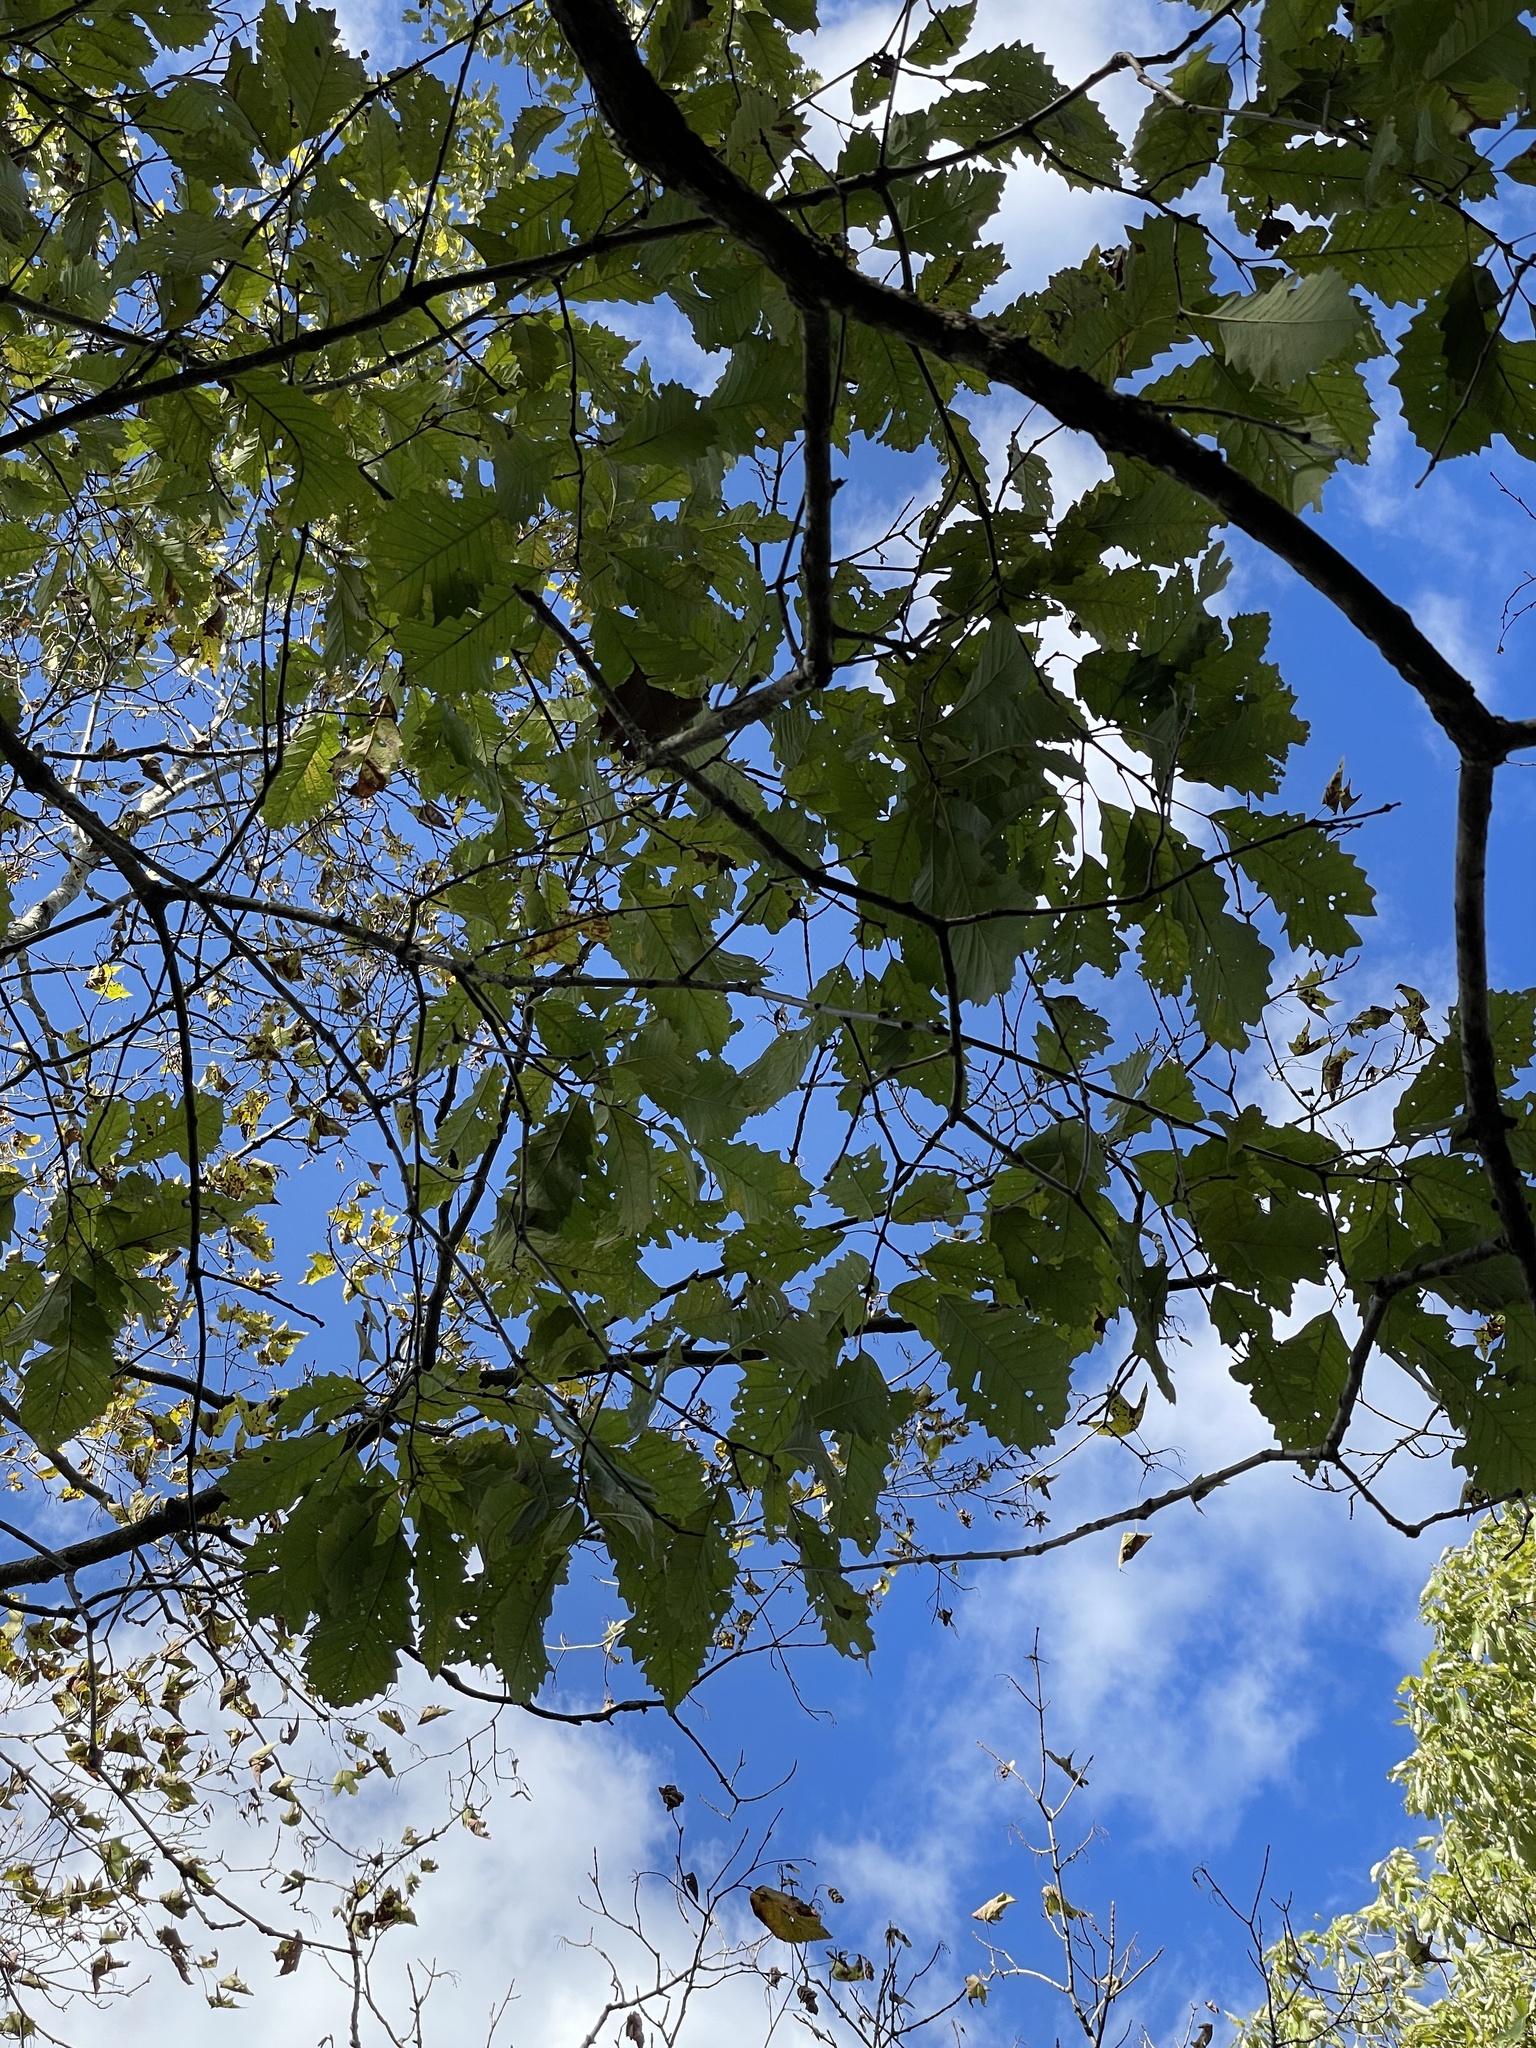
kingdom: Plantae
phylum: Tracheophyta
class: Magnoliopsida
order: Fagales
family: Fagaceae
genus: Quercus
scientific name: Quercus muehlenbergii
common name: Chinkapin oak
